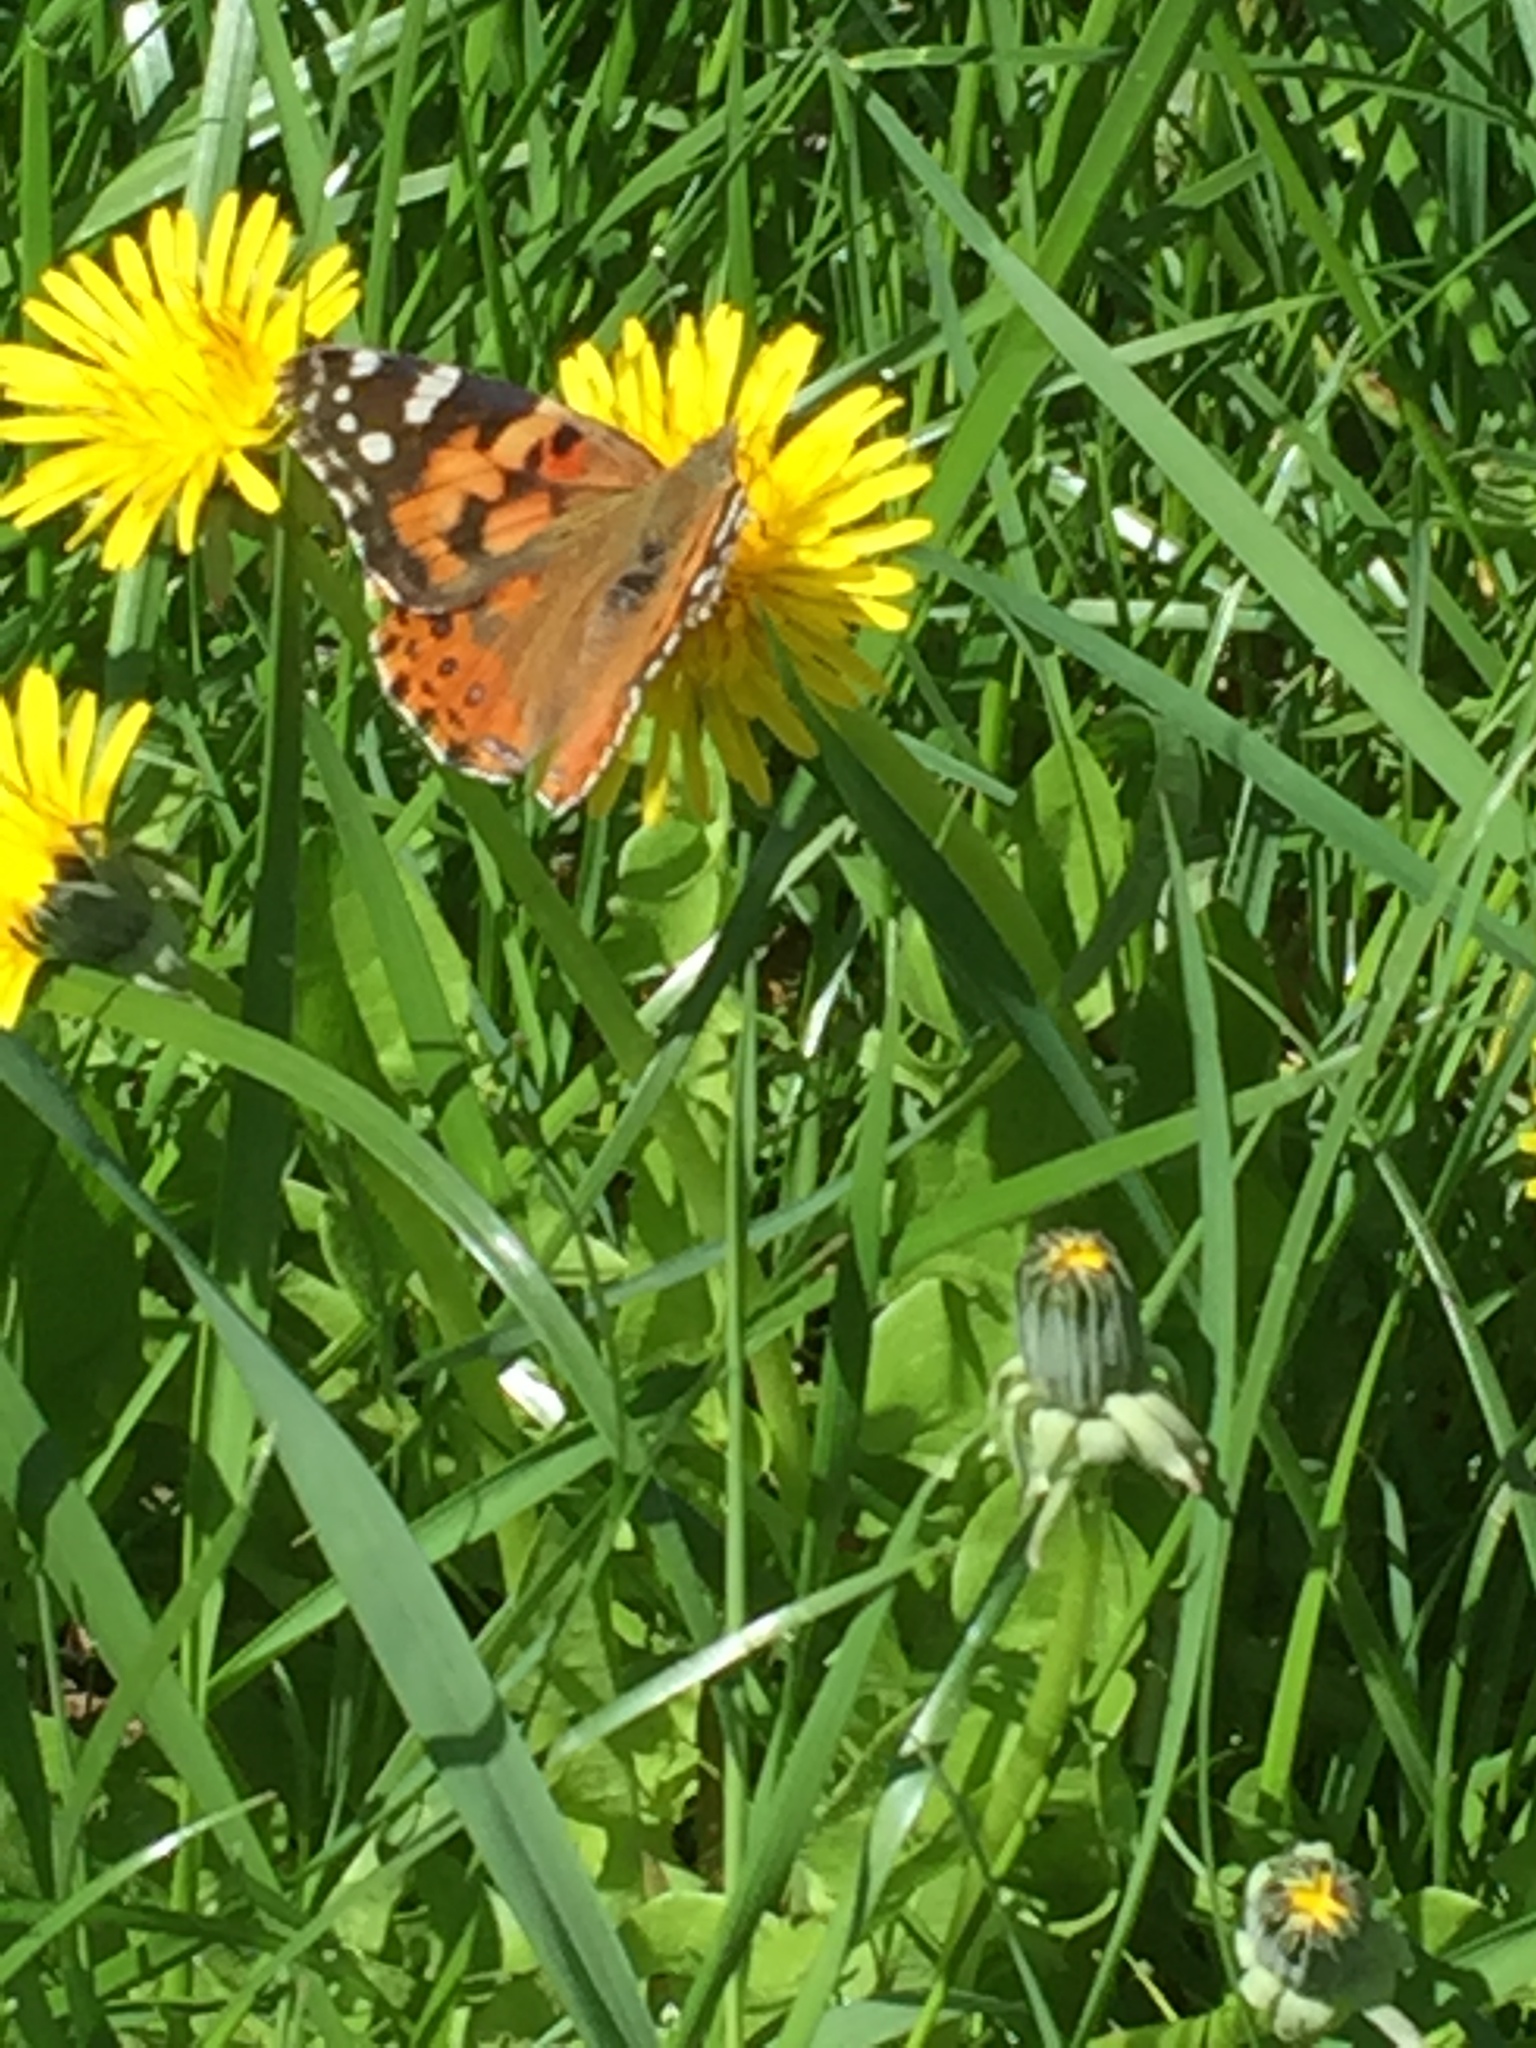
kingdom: Animalia
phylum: Arthropoda
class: Insecta
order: Lepidoptera
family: Nymphalidae
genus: Vanessa
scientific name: Vanessa cardui
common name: Painted lady
